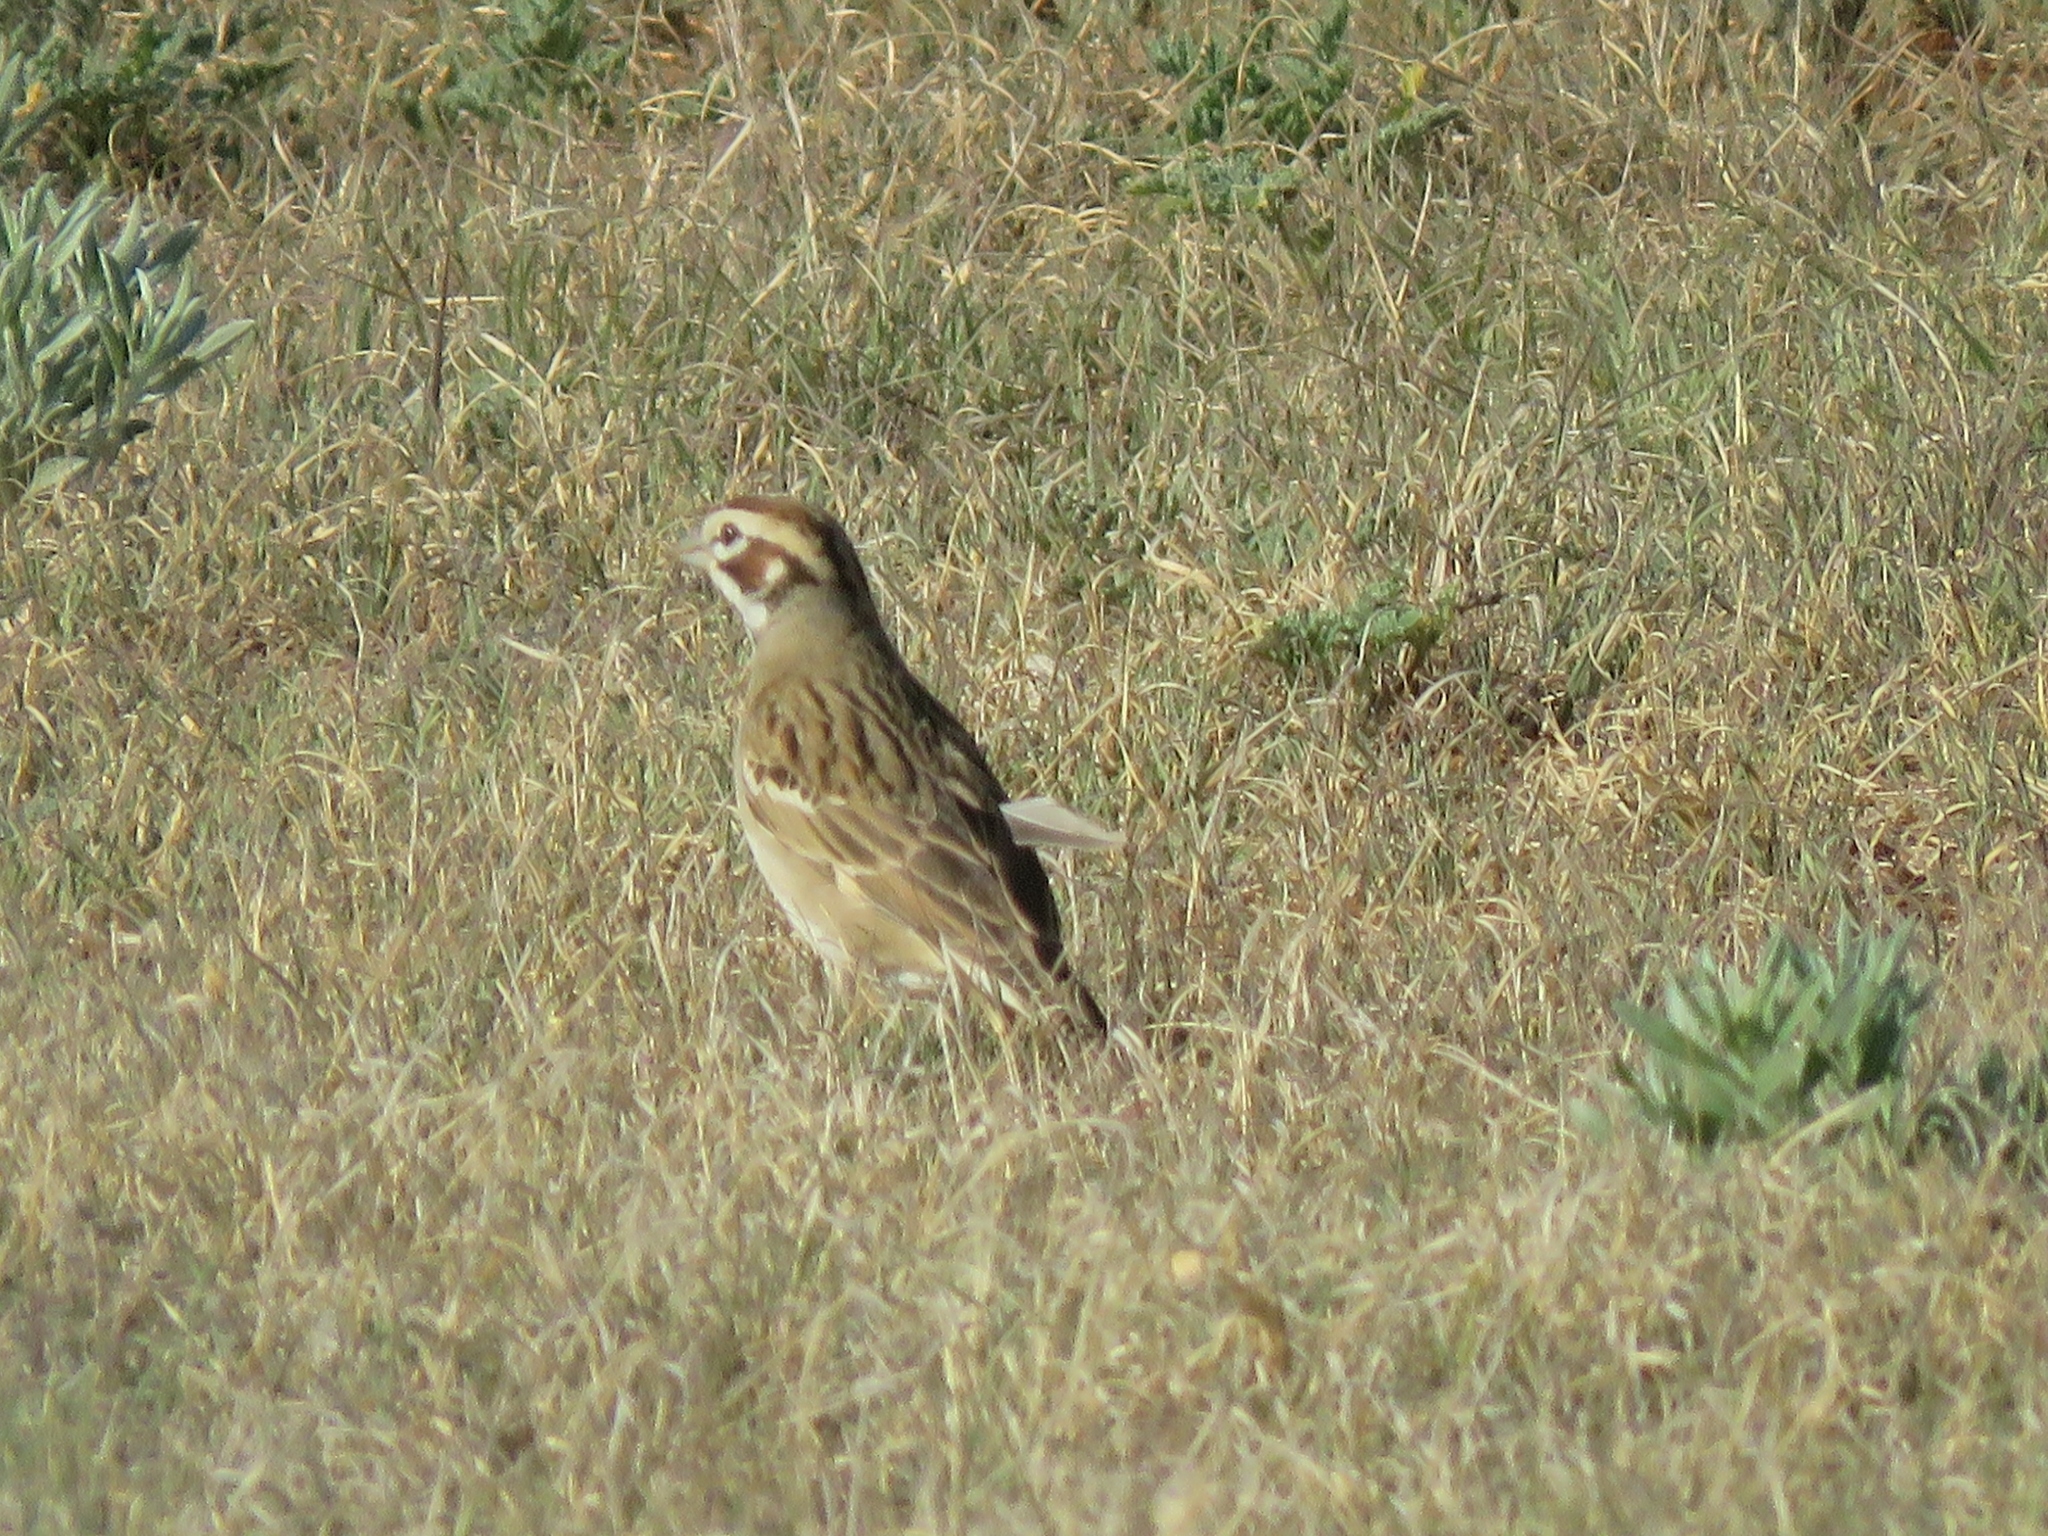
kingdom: Animalia
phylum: Chordata
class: Aves
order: Passeriformes
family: Passerellidae
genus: Chondestes
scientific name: Chondestes grammacus
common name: Lark sparrow
